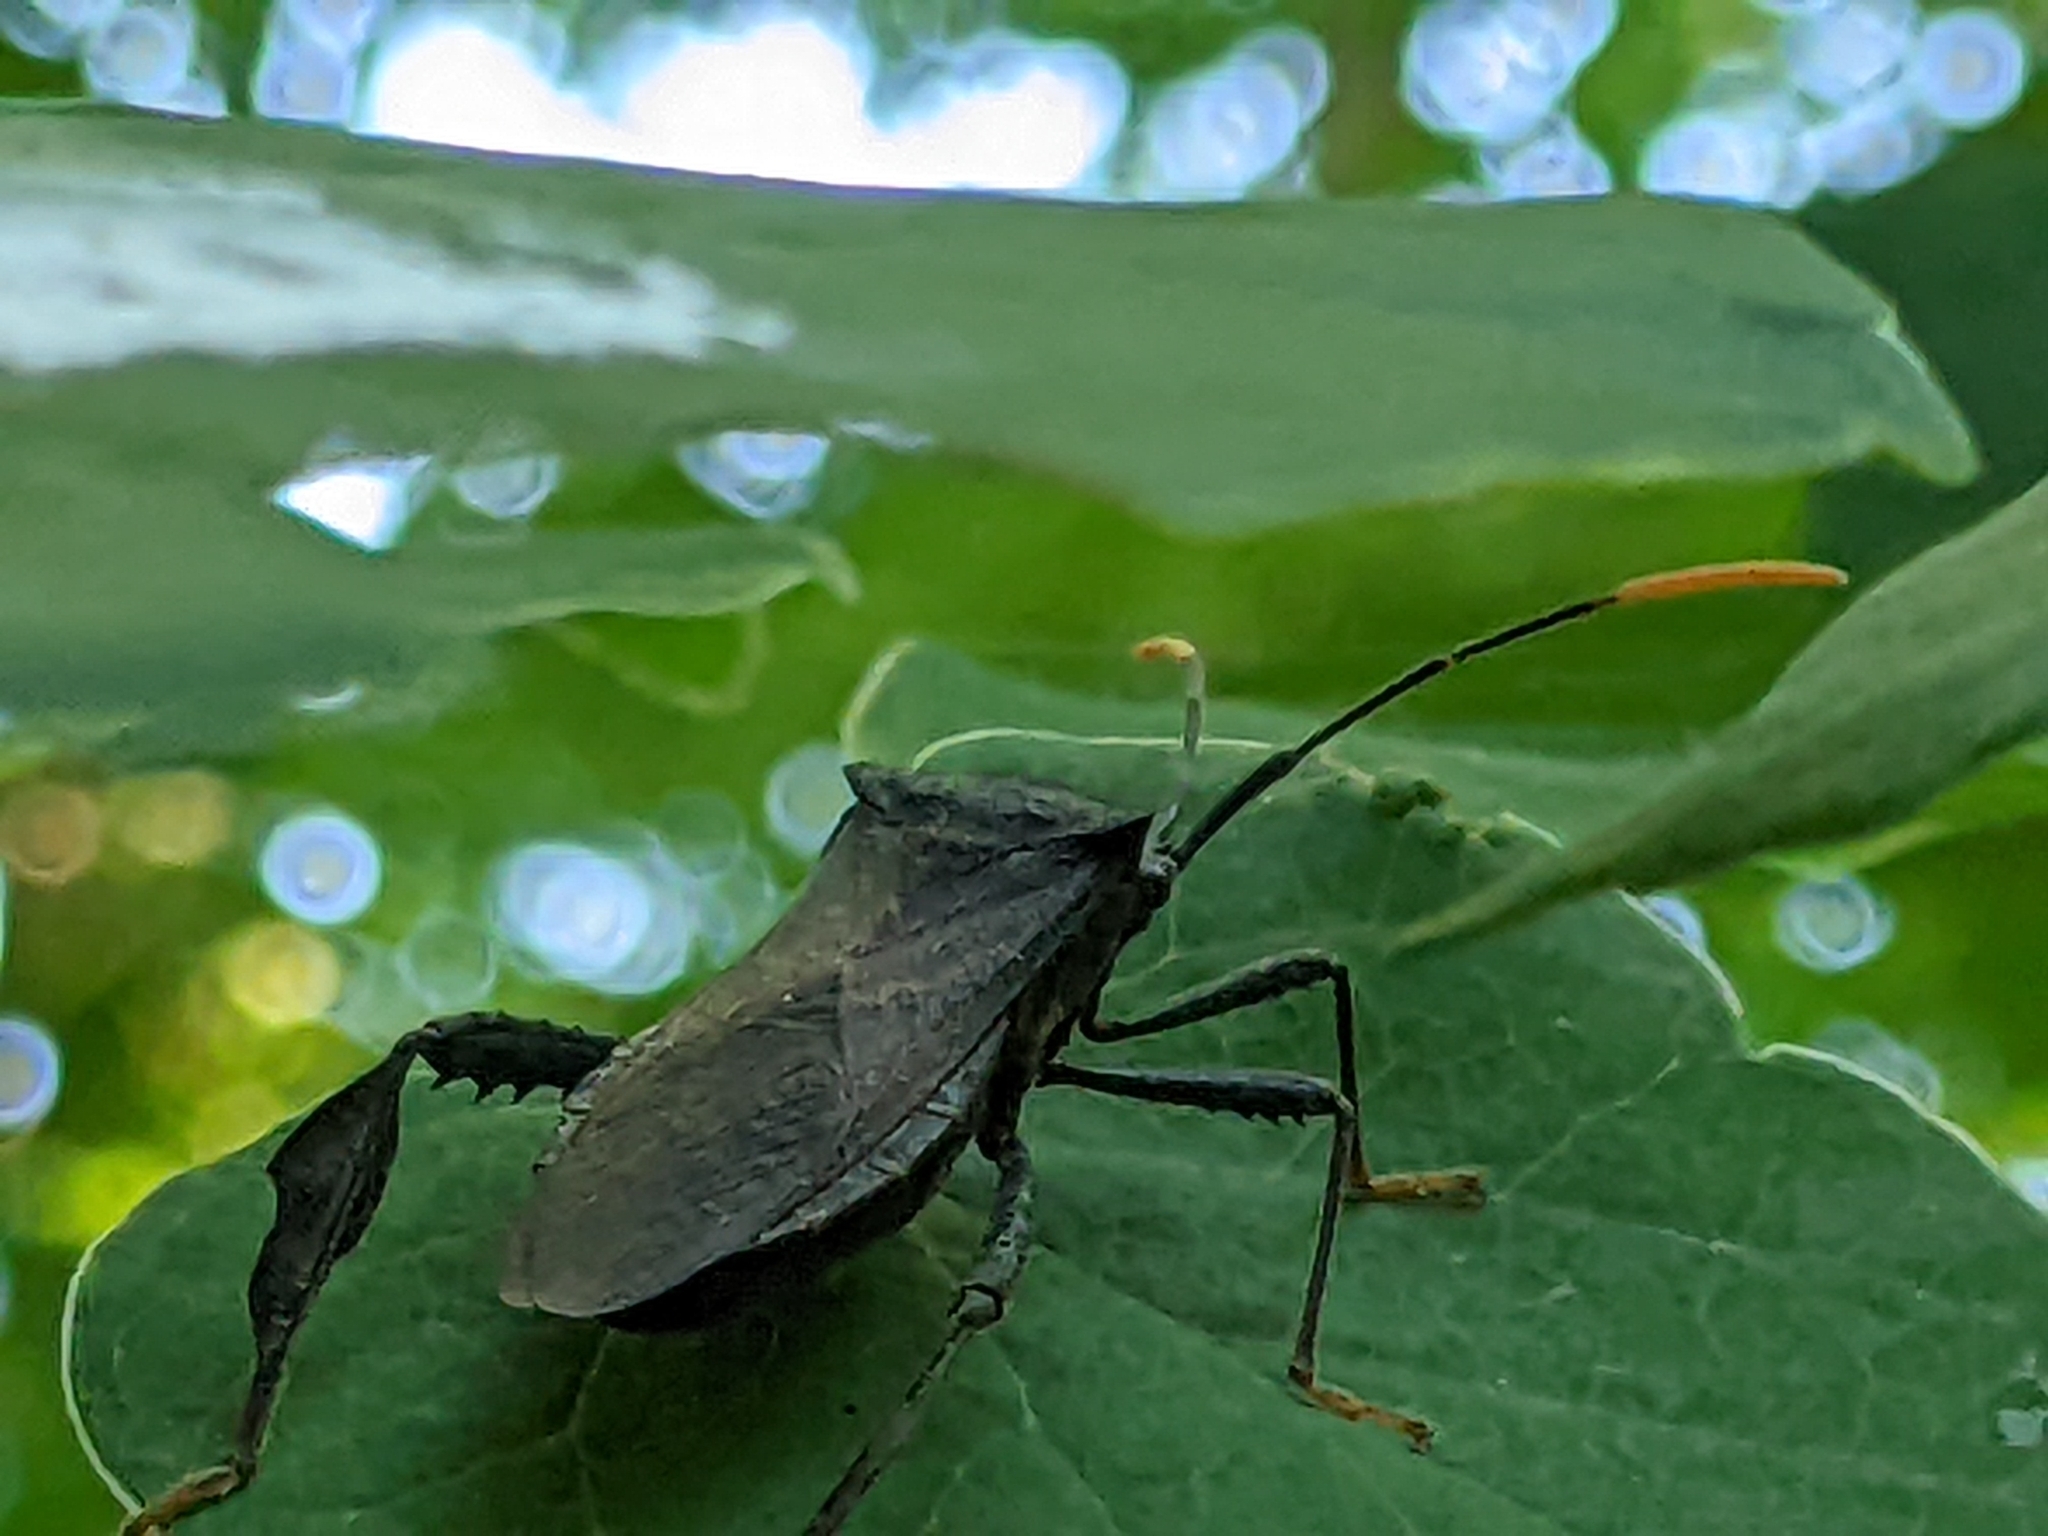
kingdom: Animalia
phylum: Arthropoda
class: Insecta
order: Hemiptera
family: Coreidae
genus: Acanthocephala
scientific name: Acanthocephala terminalis
